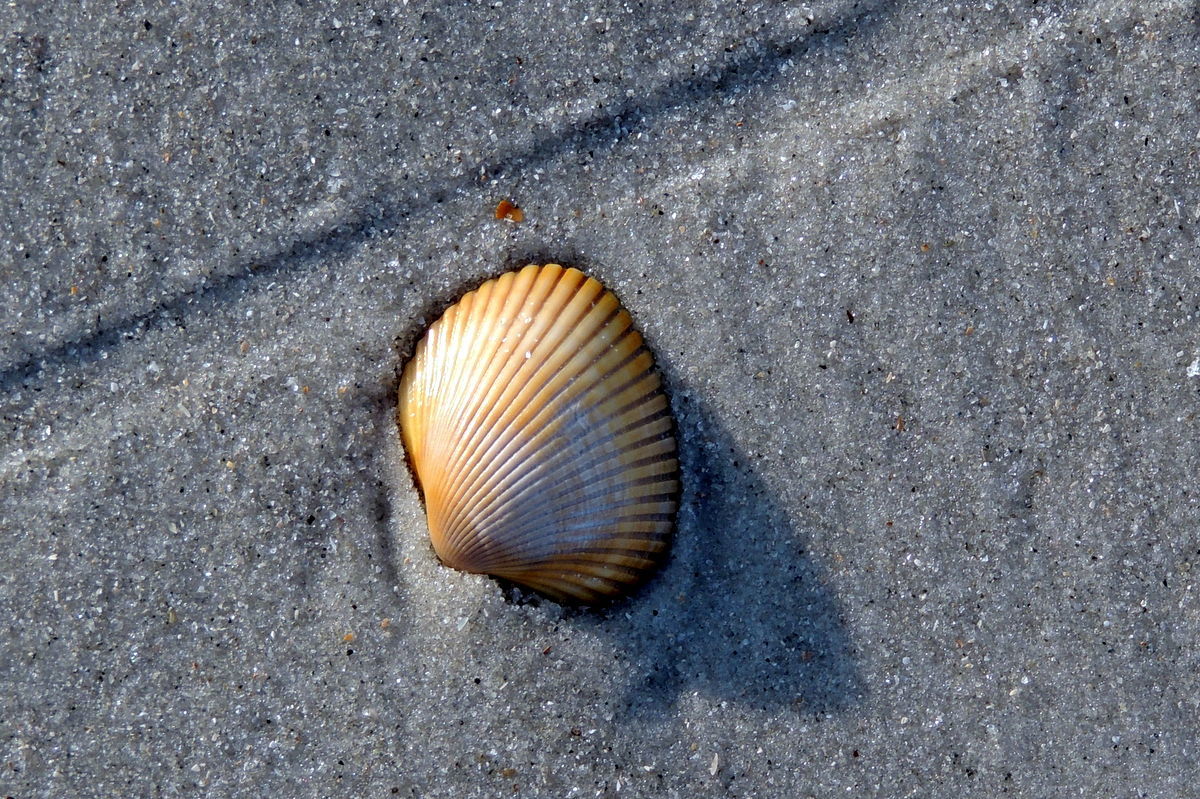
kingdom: Animalia
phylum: Mollusca
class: Bivalvia
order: Arcida
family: Arcidae
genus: Lunarca
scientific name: Lunarca ovalis
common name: Blood ark
